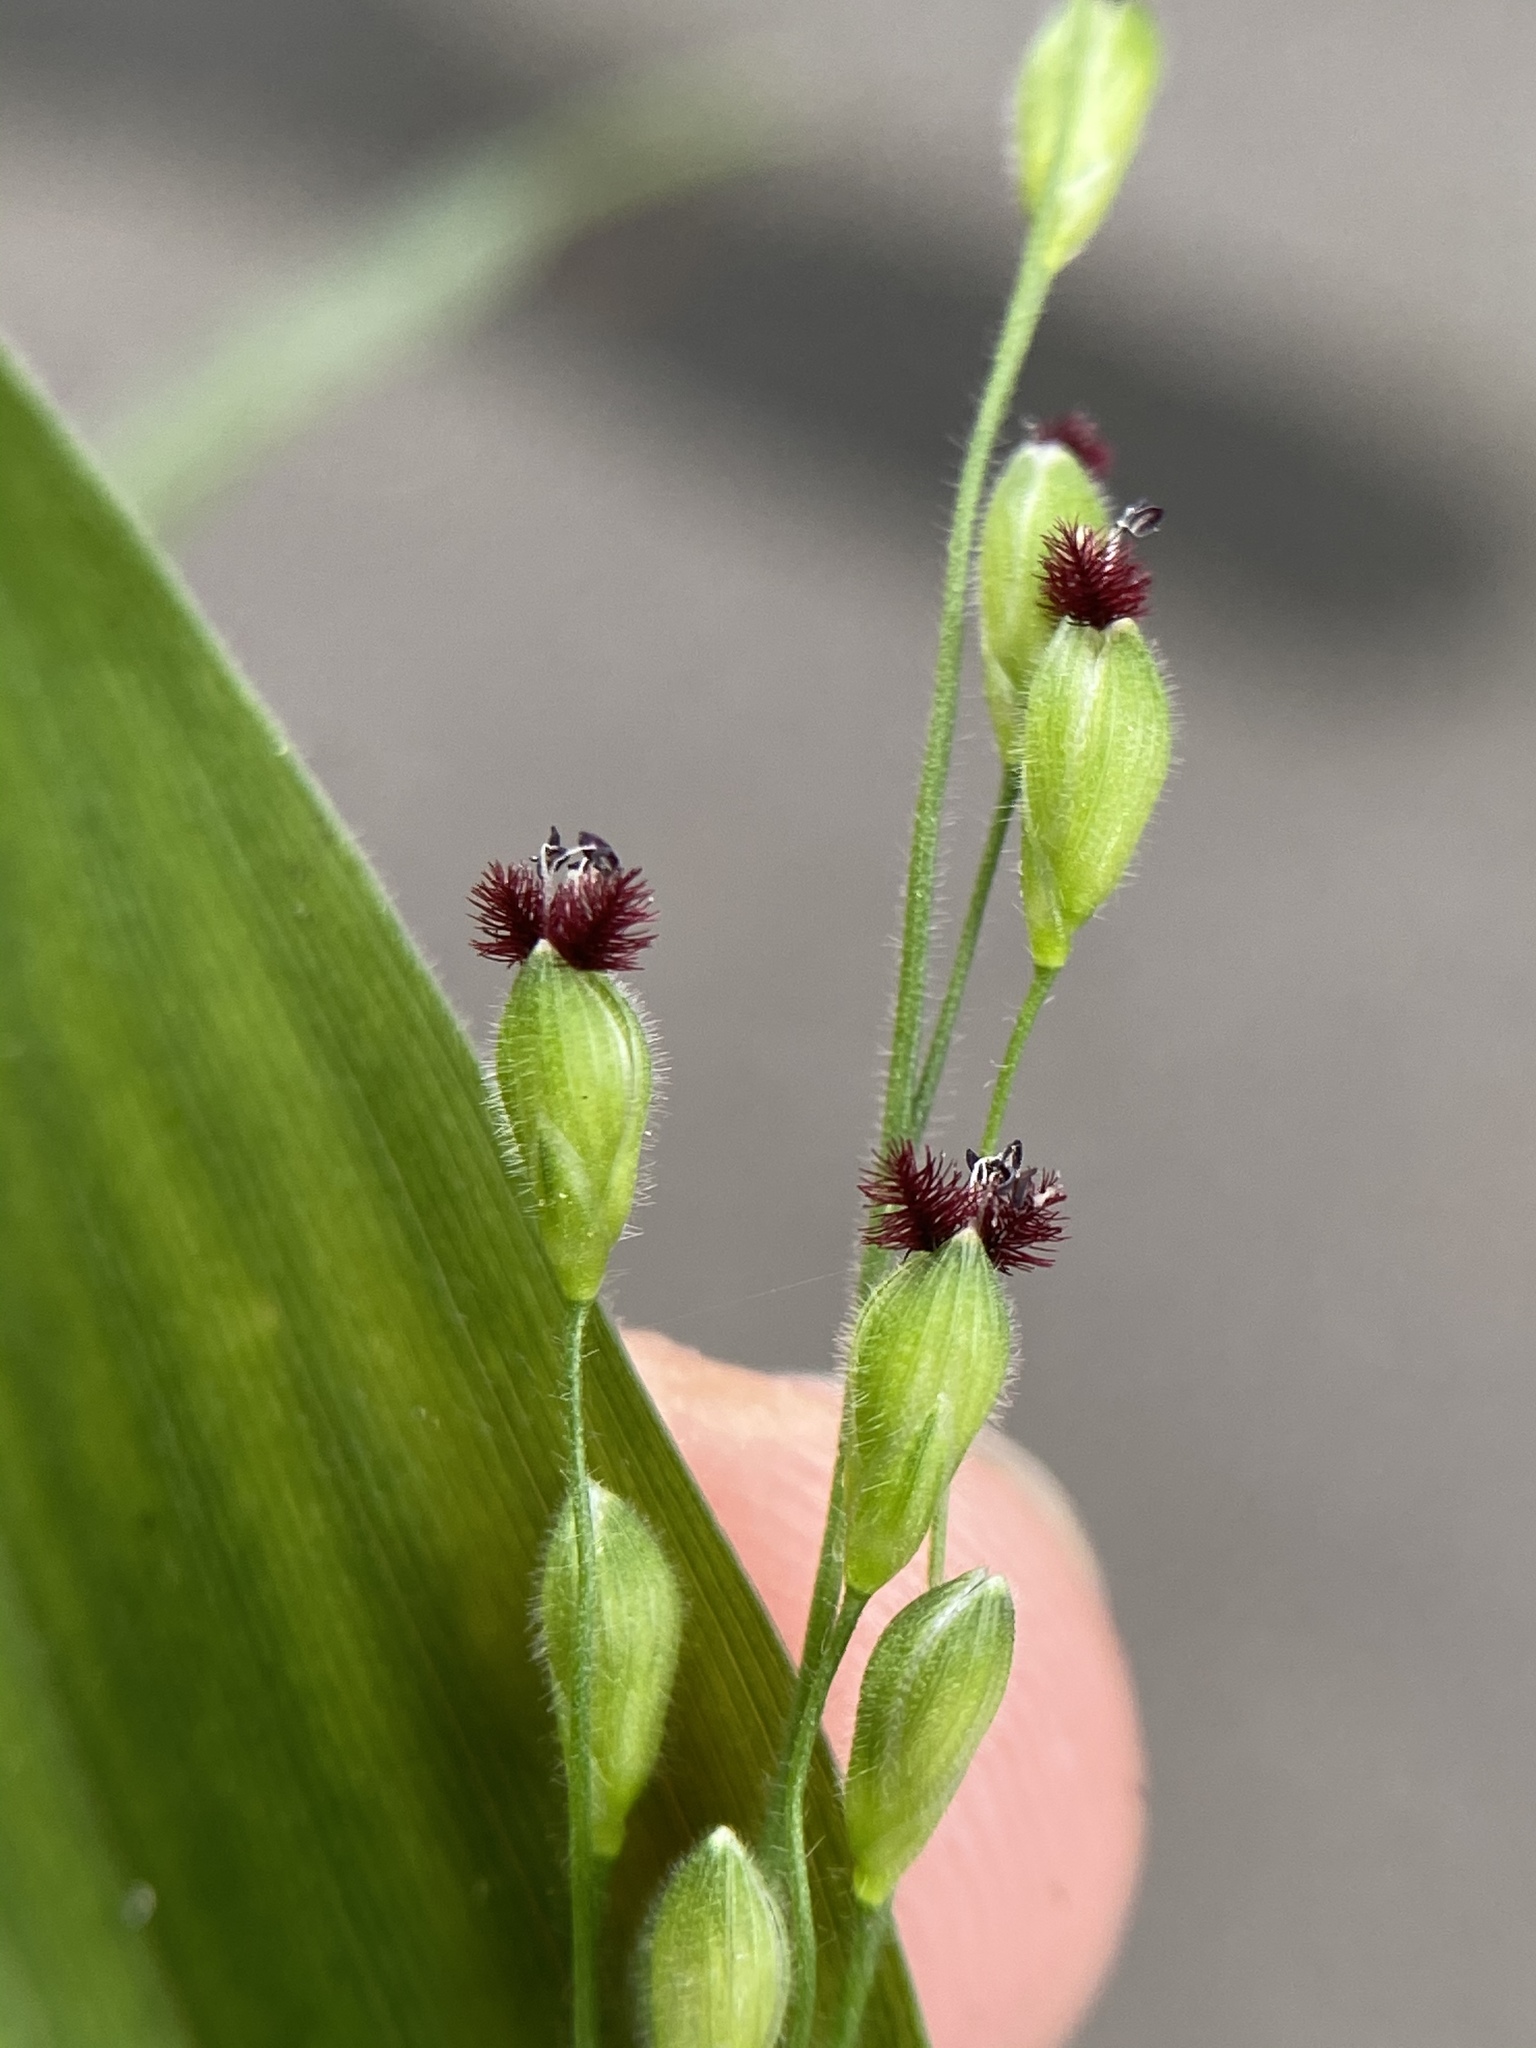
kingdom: Plantae
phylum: Tracheophyta
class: Liliopsida
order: Poales
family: Poaceae
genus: Dichanthelium
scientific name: Dichanthelium boscii
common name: Bosc's panic grass
